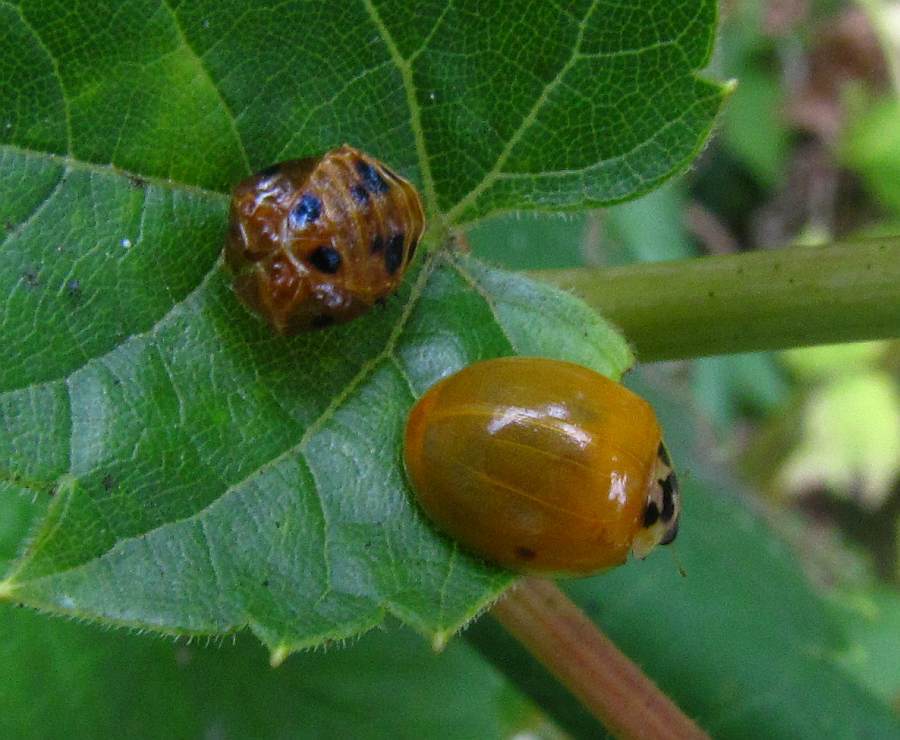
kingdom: Animalia
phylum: Arthropoda
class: Insecta
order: Coleoptera
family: Coccinellidae
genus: Harmonia
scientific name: Harmonia axyridis
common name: Harlequin ladybird
